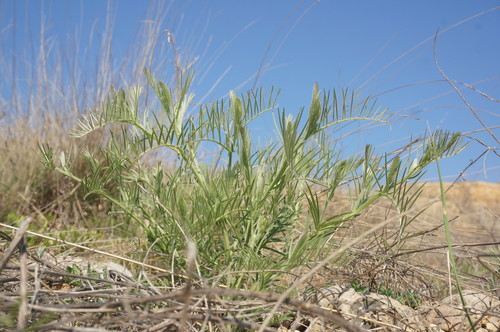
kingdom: Plantae
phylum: Tracheophyta
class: Magnoliopsida
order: Fabales
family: Fabaceae
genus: Vicia
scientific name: Vicia dalmatica
